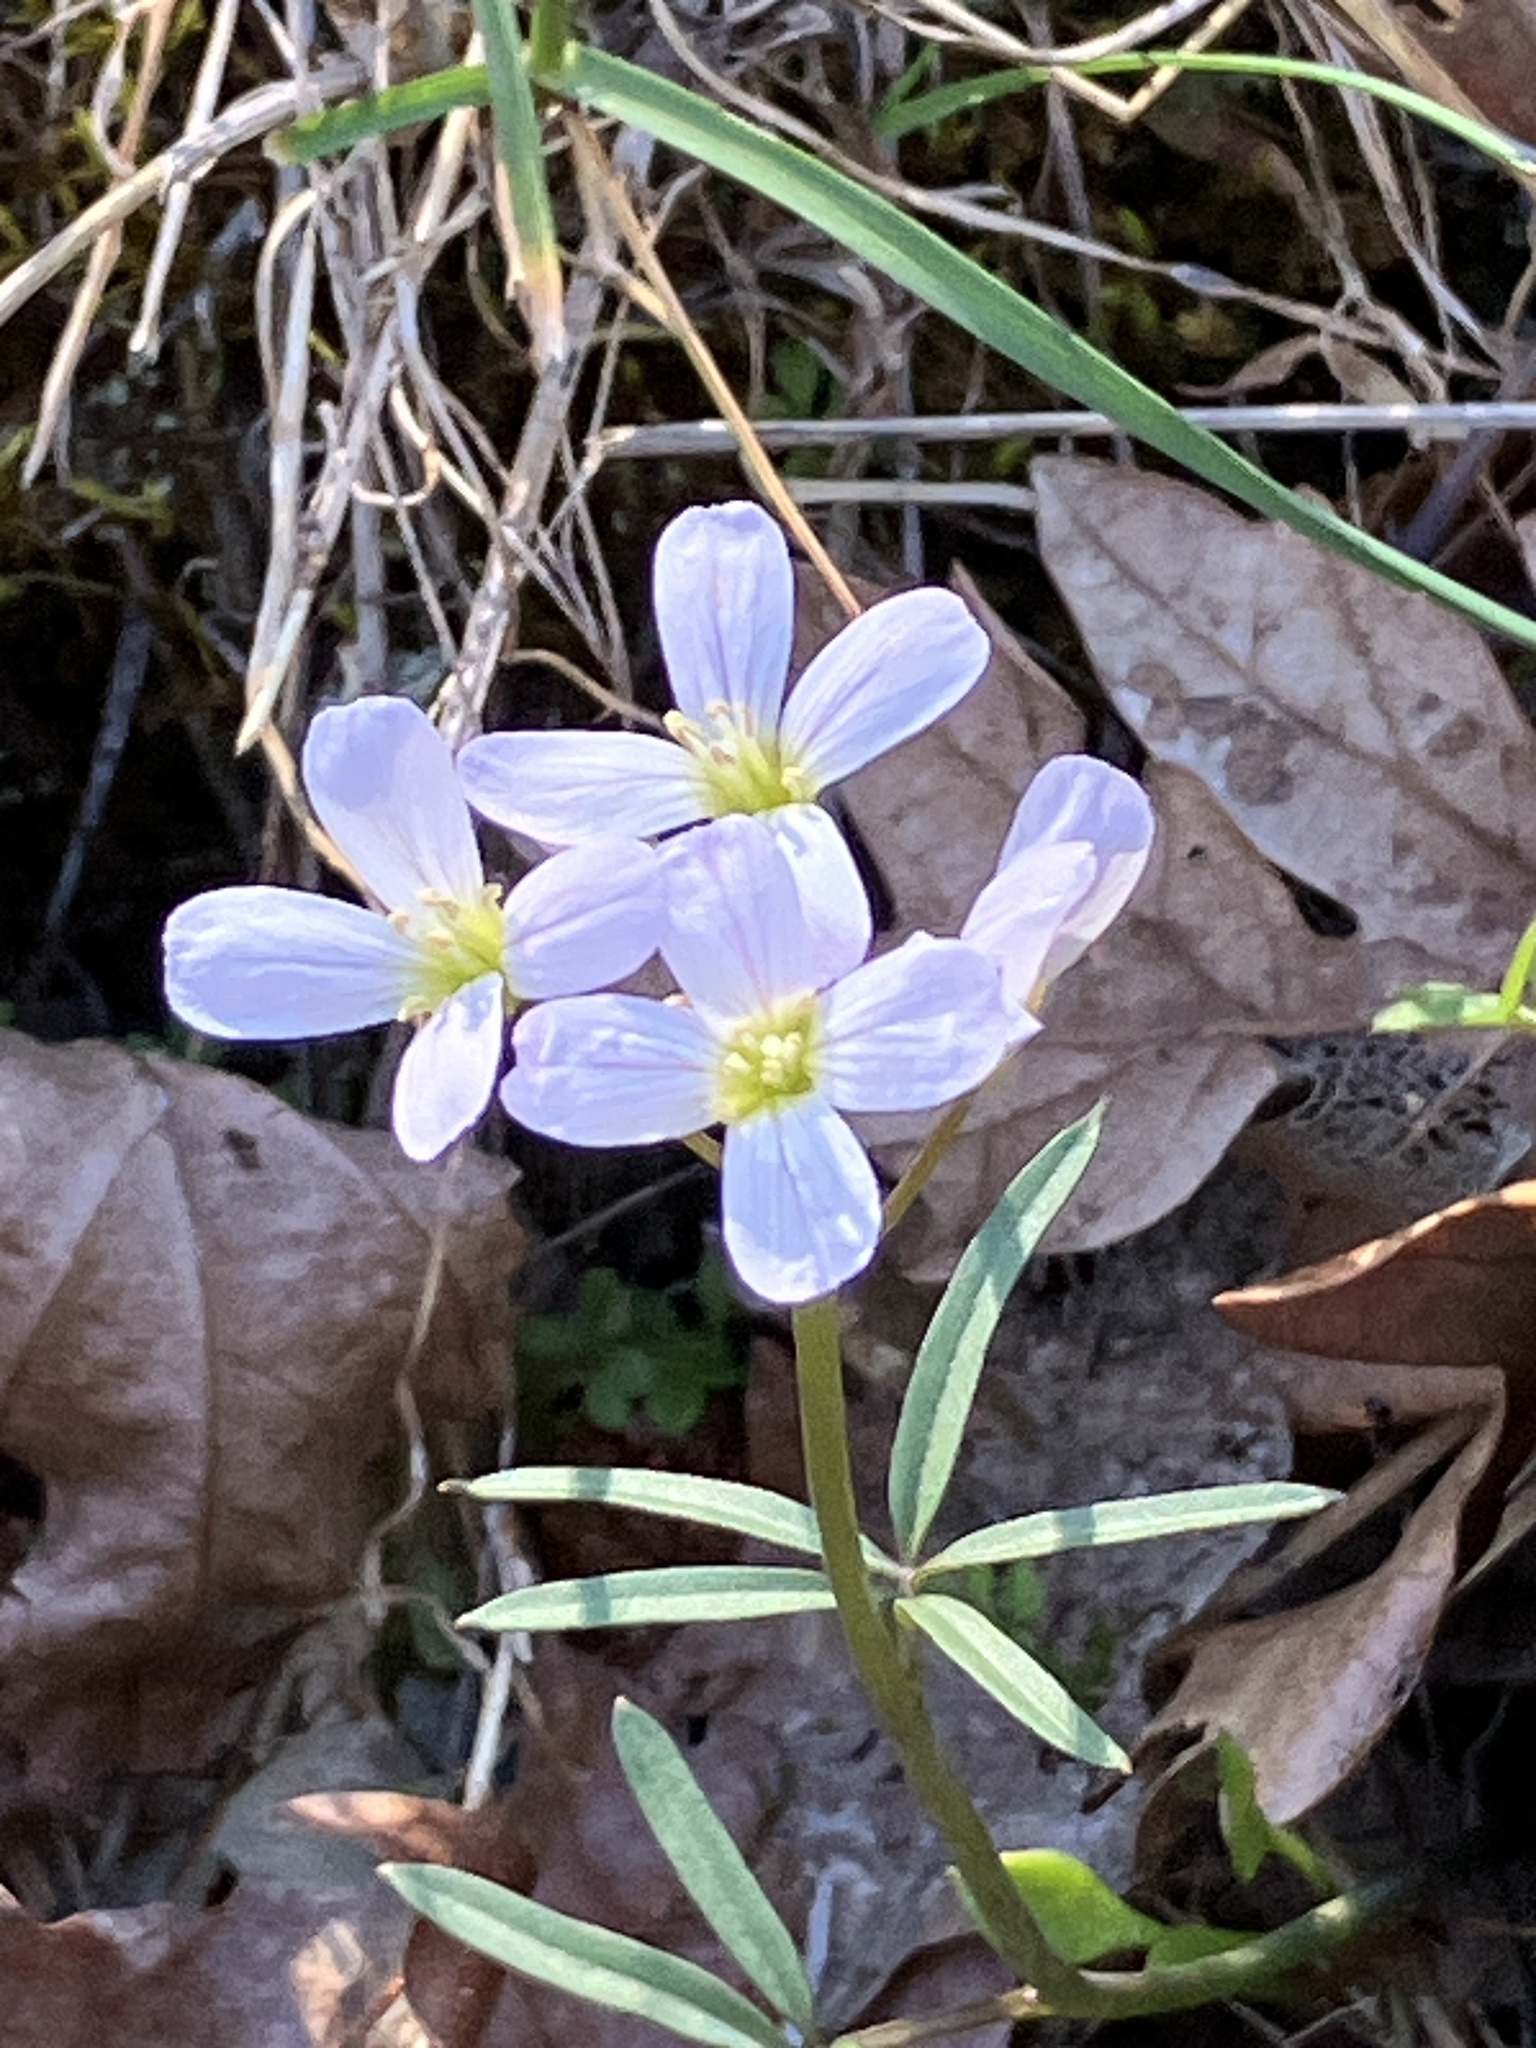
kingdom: Plantae
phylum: Tracheophyta
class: Magnoliopsida
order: Brassicales
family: Brassicaceae
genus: Cardamine
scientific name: Cardamine nuttallii
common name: Nuttall's toothwort
